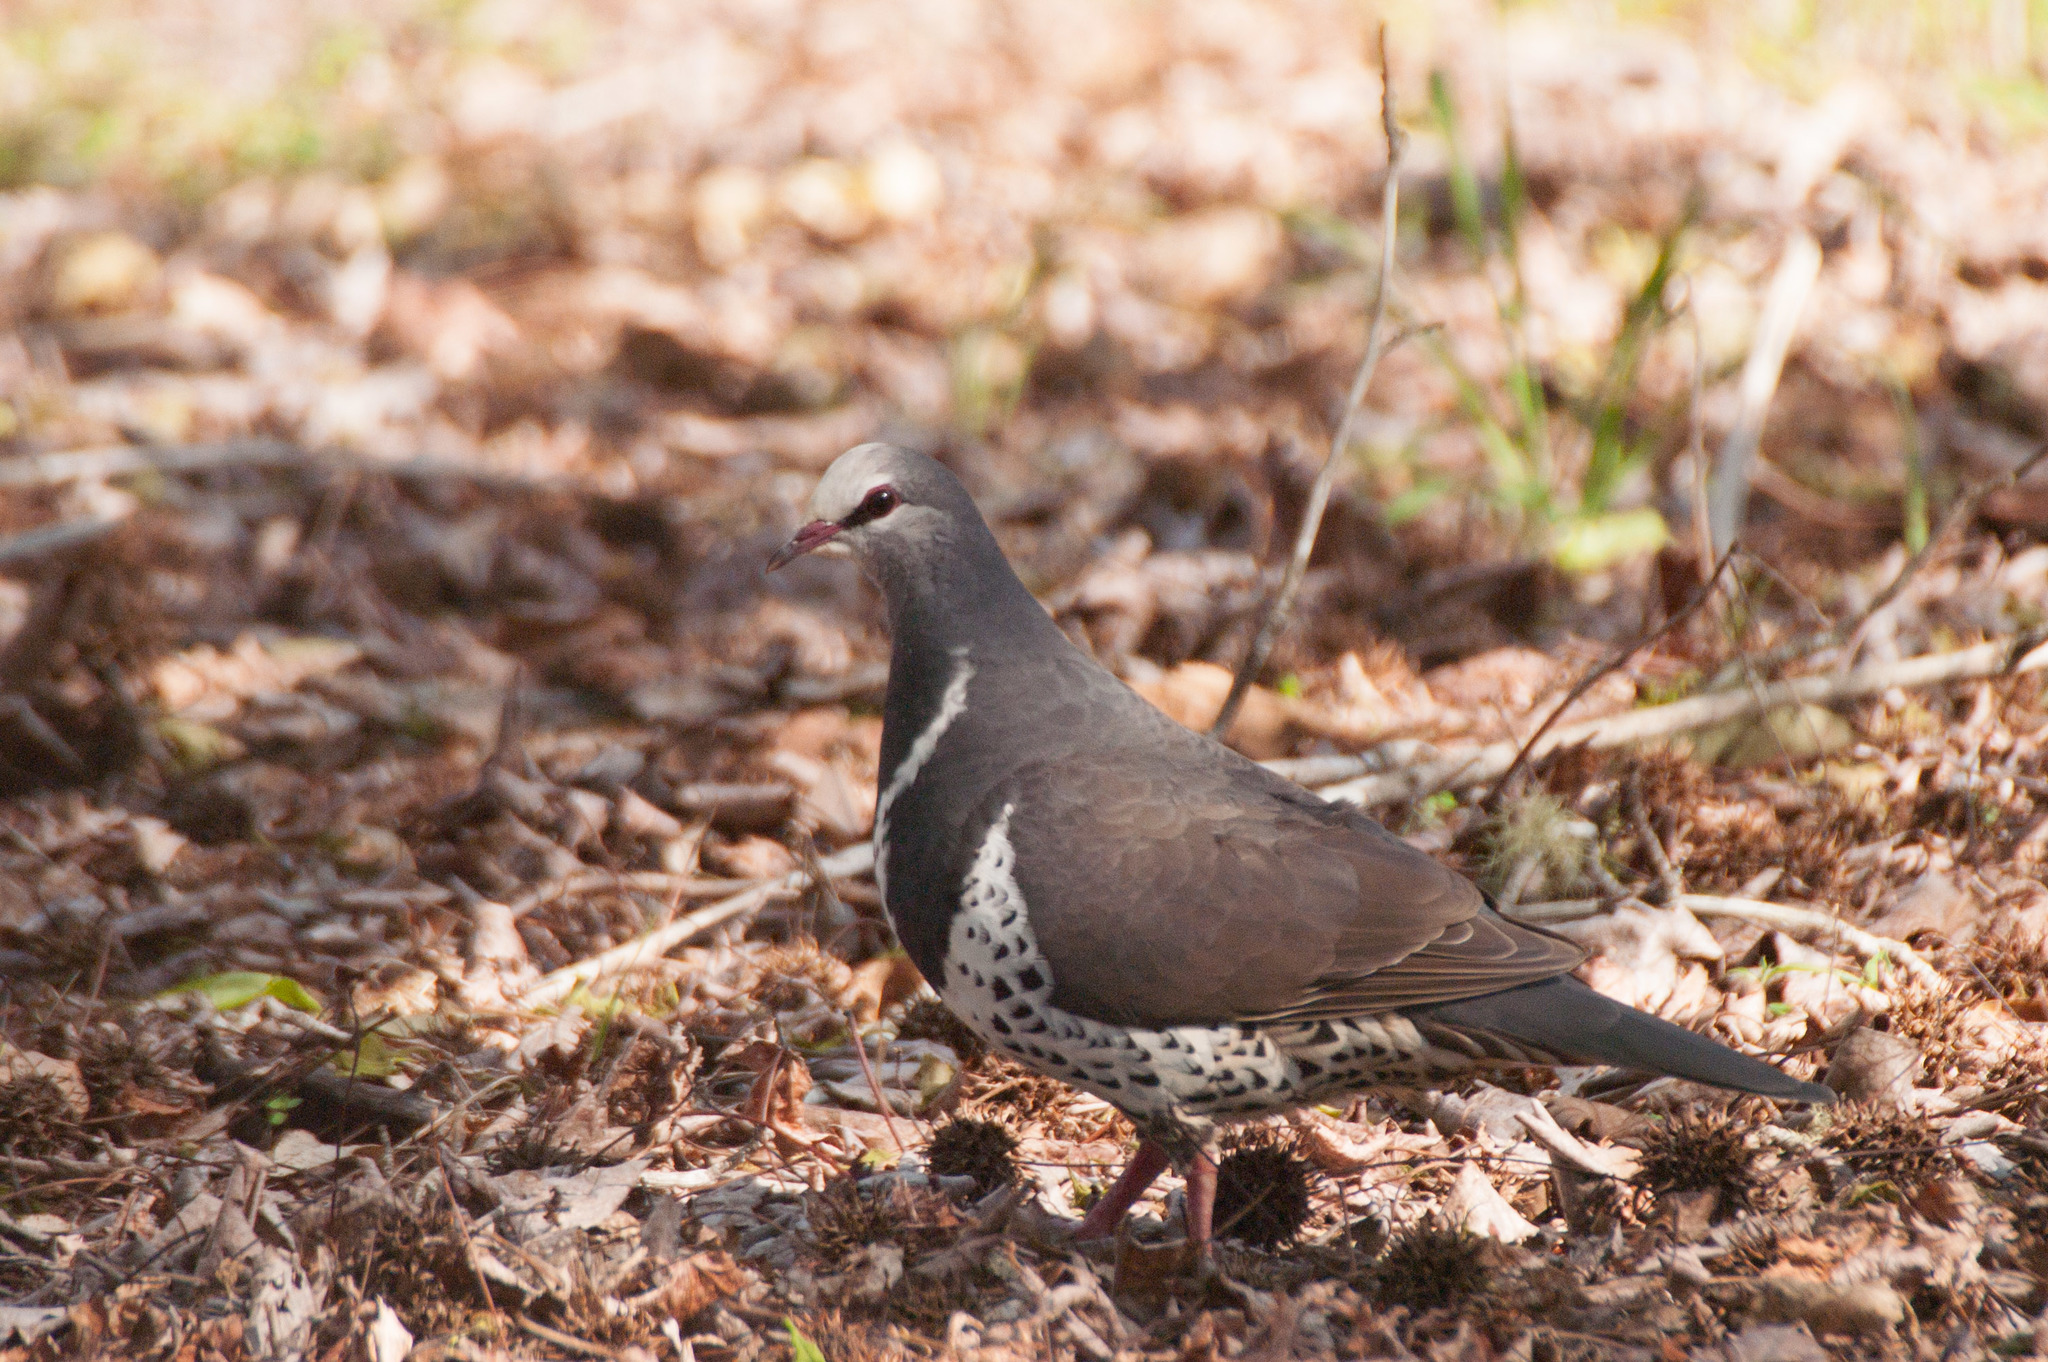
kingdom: Animalia
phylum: Chordata
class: Aves
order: Columbiformes
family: Columbidae
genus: Leucosarcia
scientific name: Leucosarcia melanoleuca
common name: Wonga pigeon
